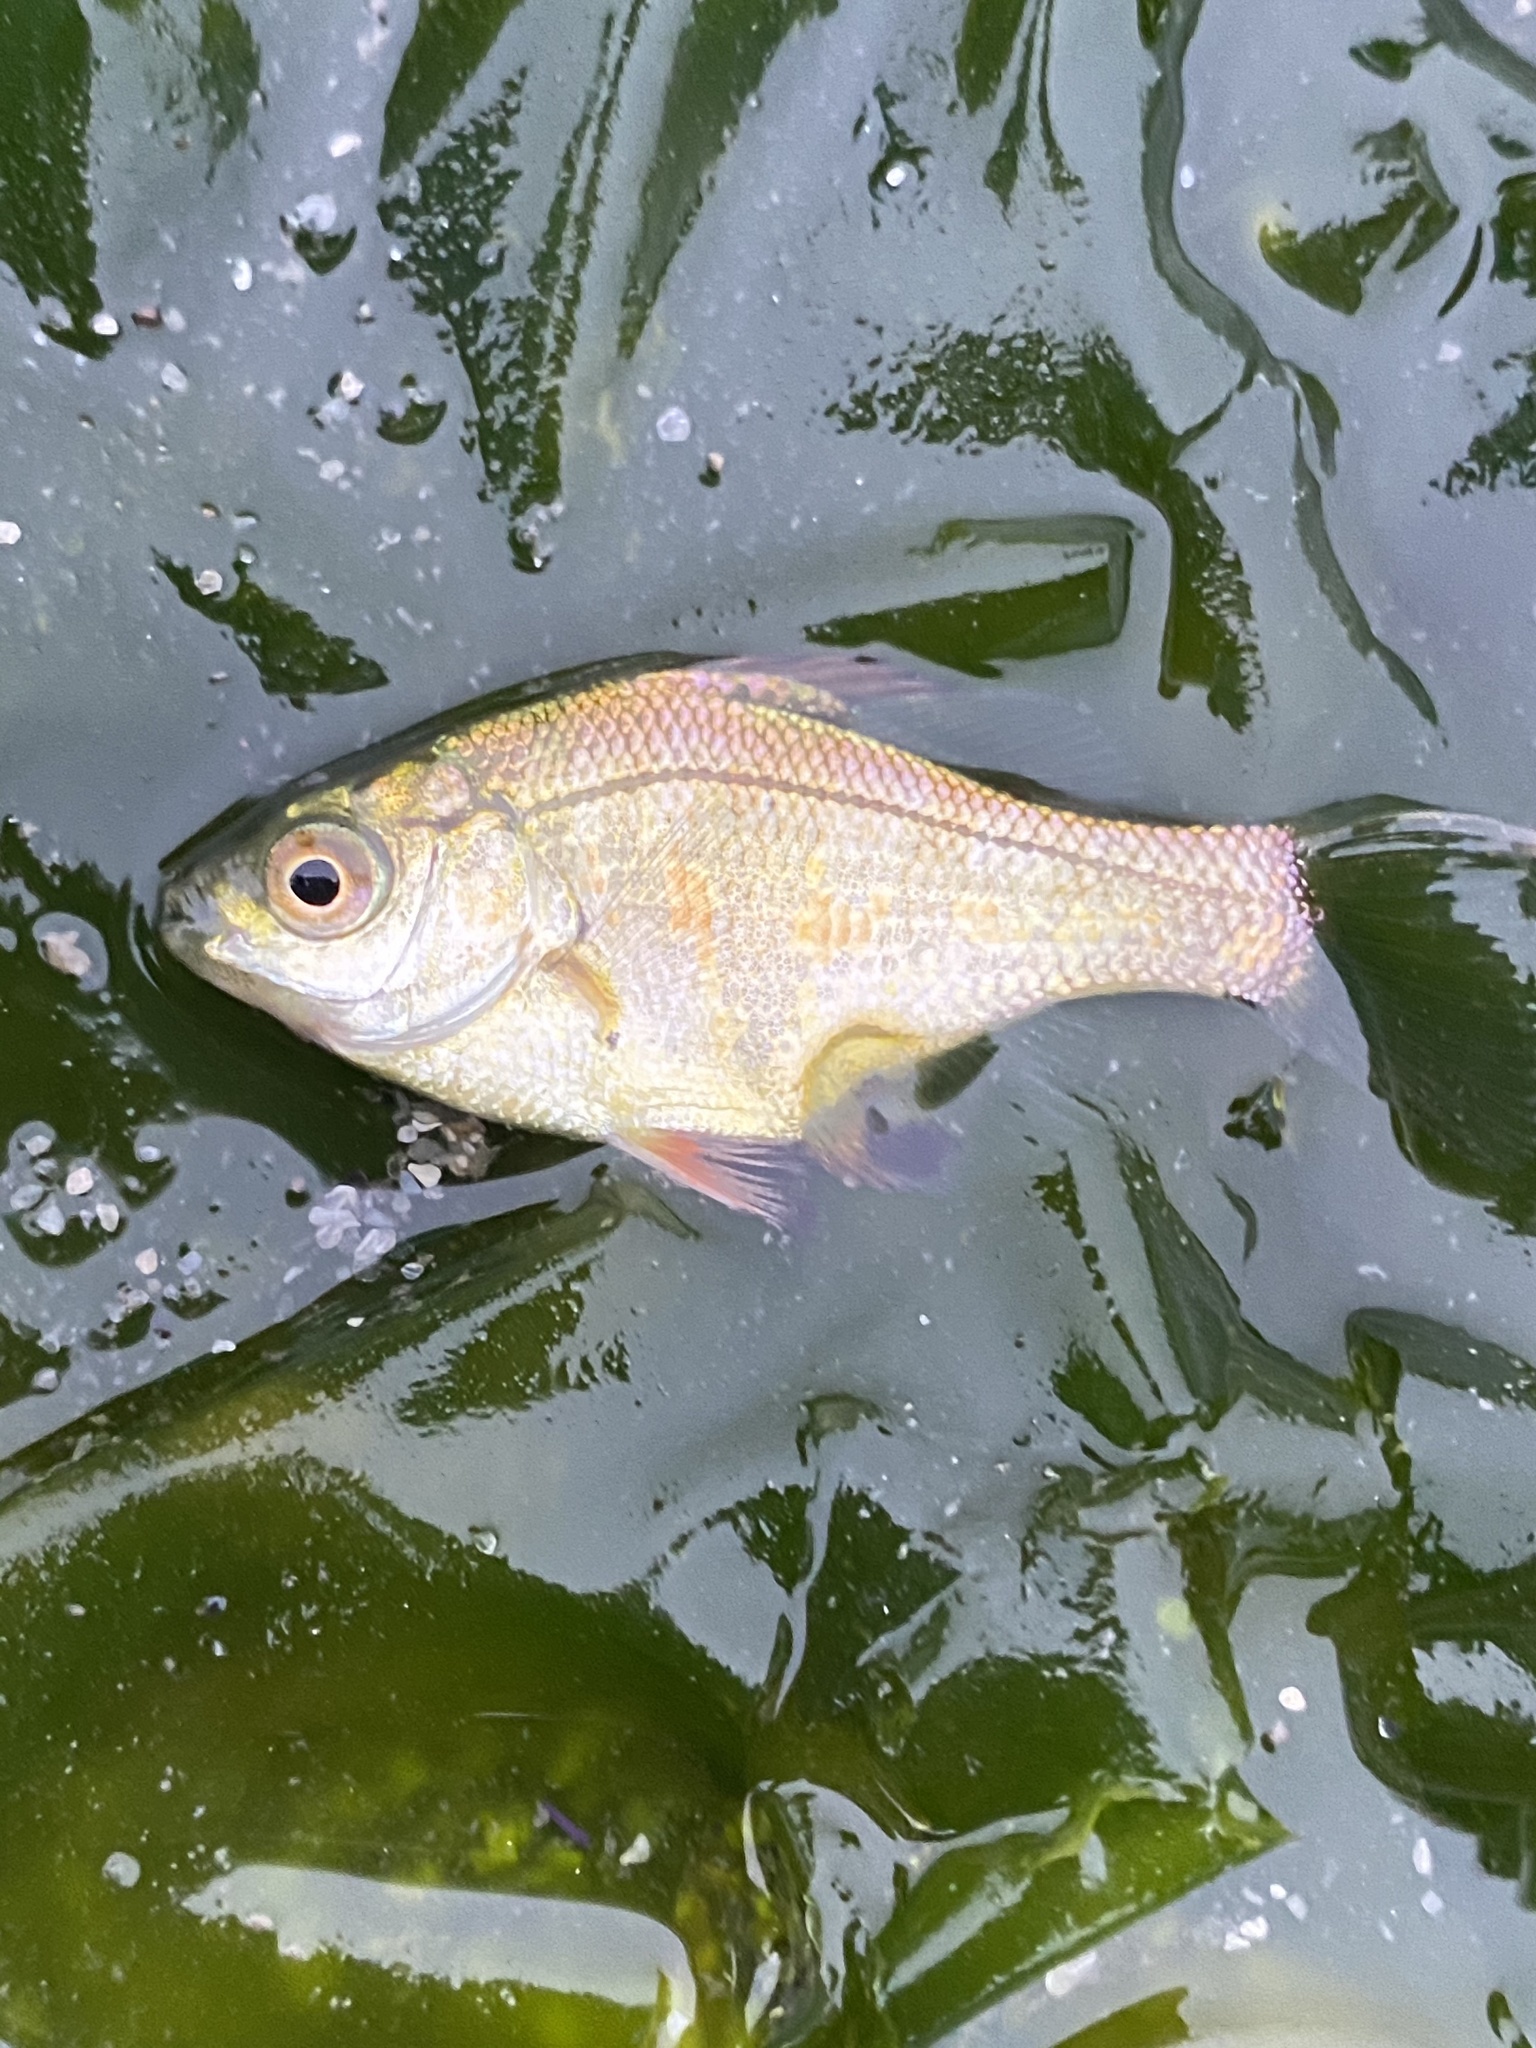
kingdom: Animalia
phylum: Chordata
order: Perciformes
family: Embiotocidae
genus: Micrometrus
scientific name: Micrometrus minimus
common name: Dwarf perch
